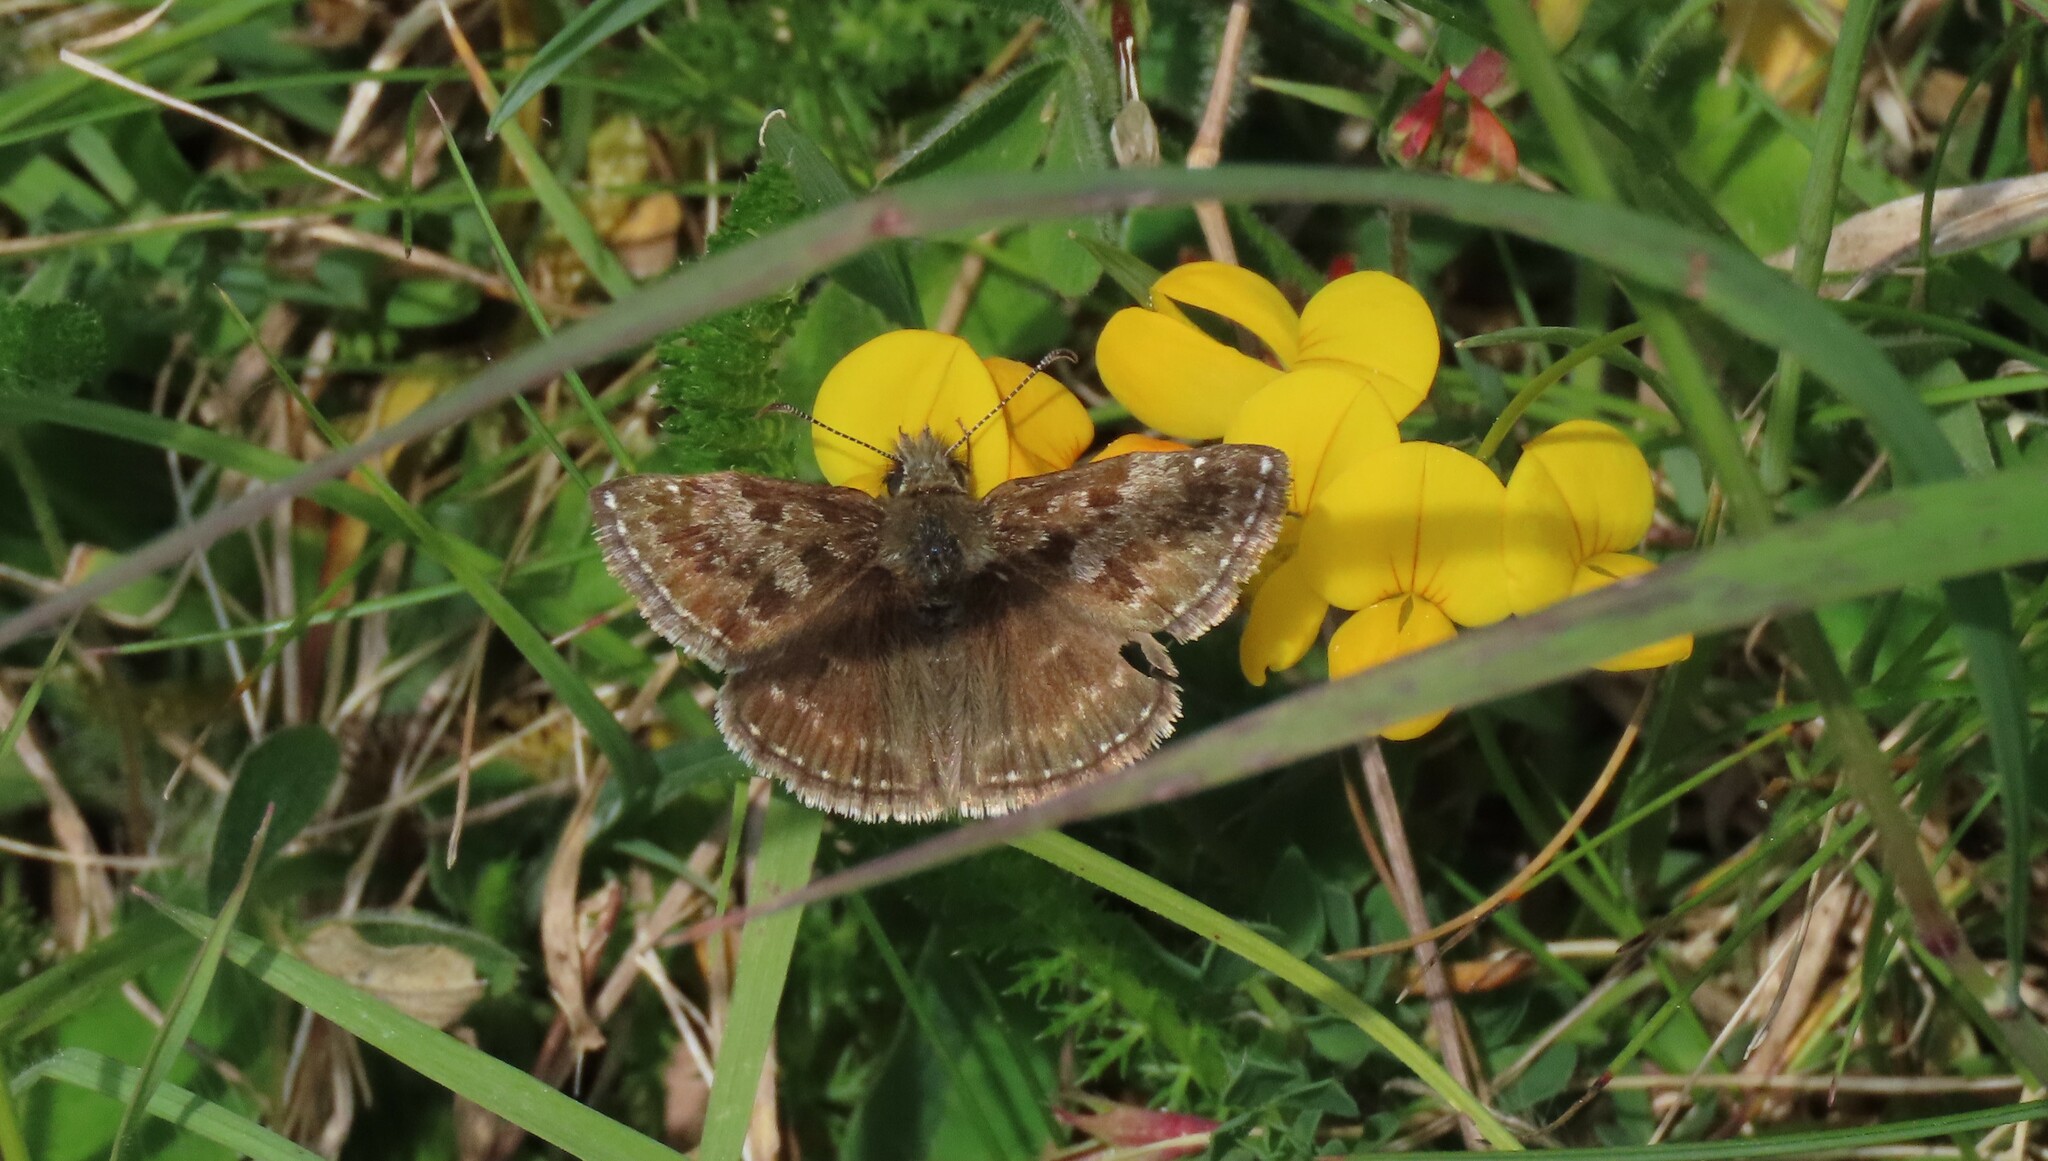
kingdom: Animalia
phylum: Arthropoda
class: Insecta
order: Lepidoptera
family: Hesperiidae
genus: Erynnis
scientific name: Erynnis tages
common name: Dingy skipper
